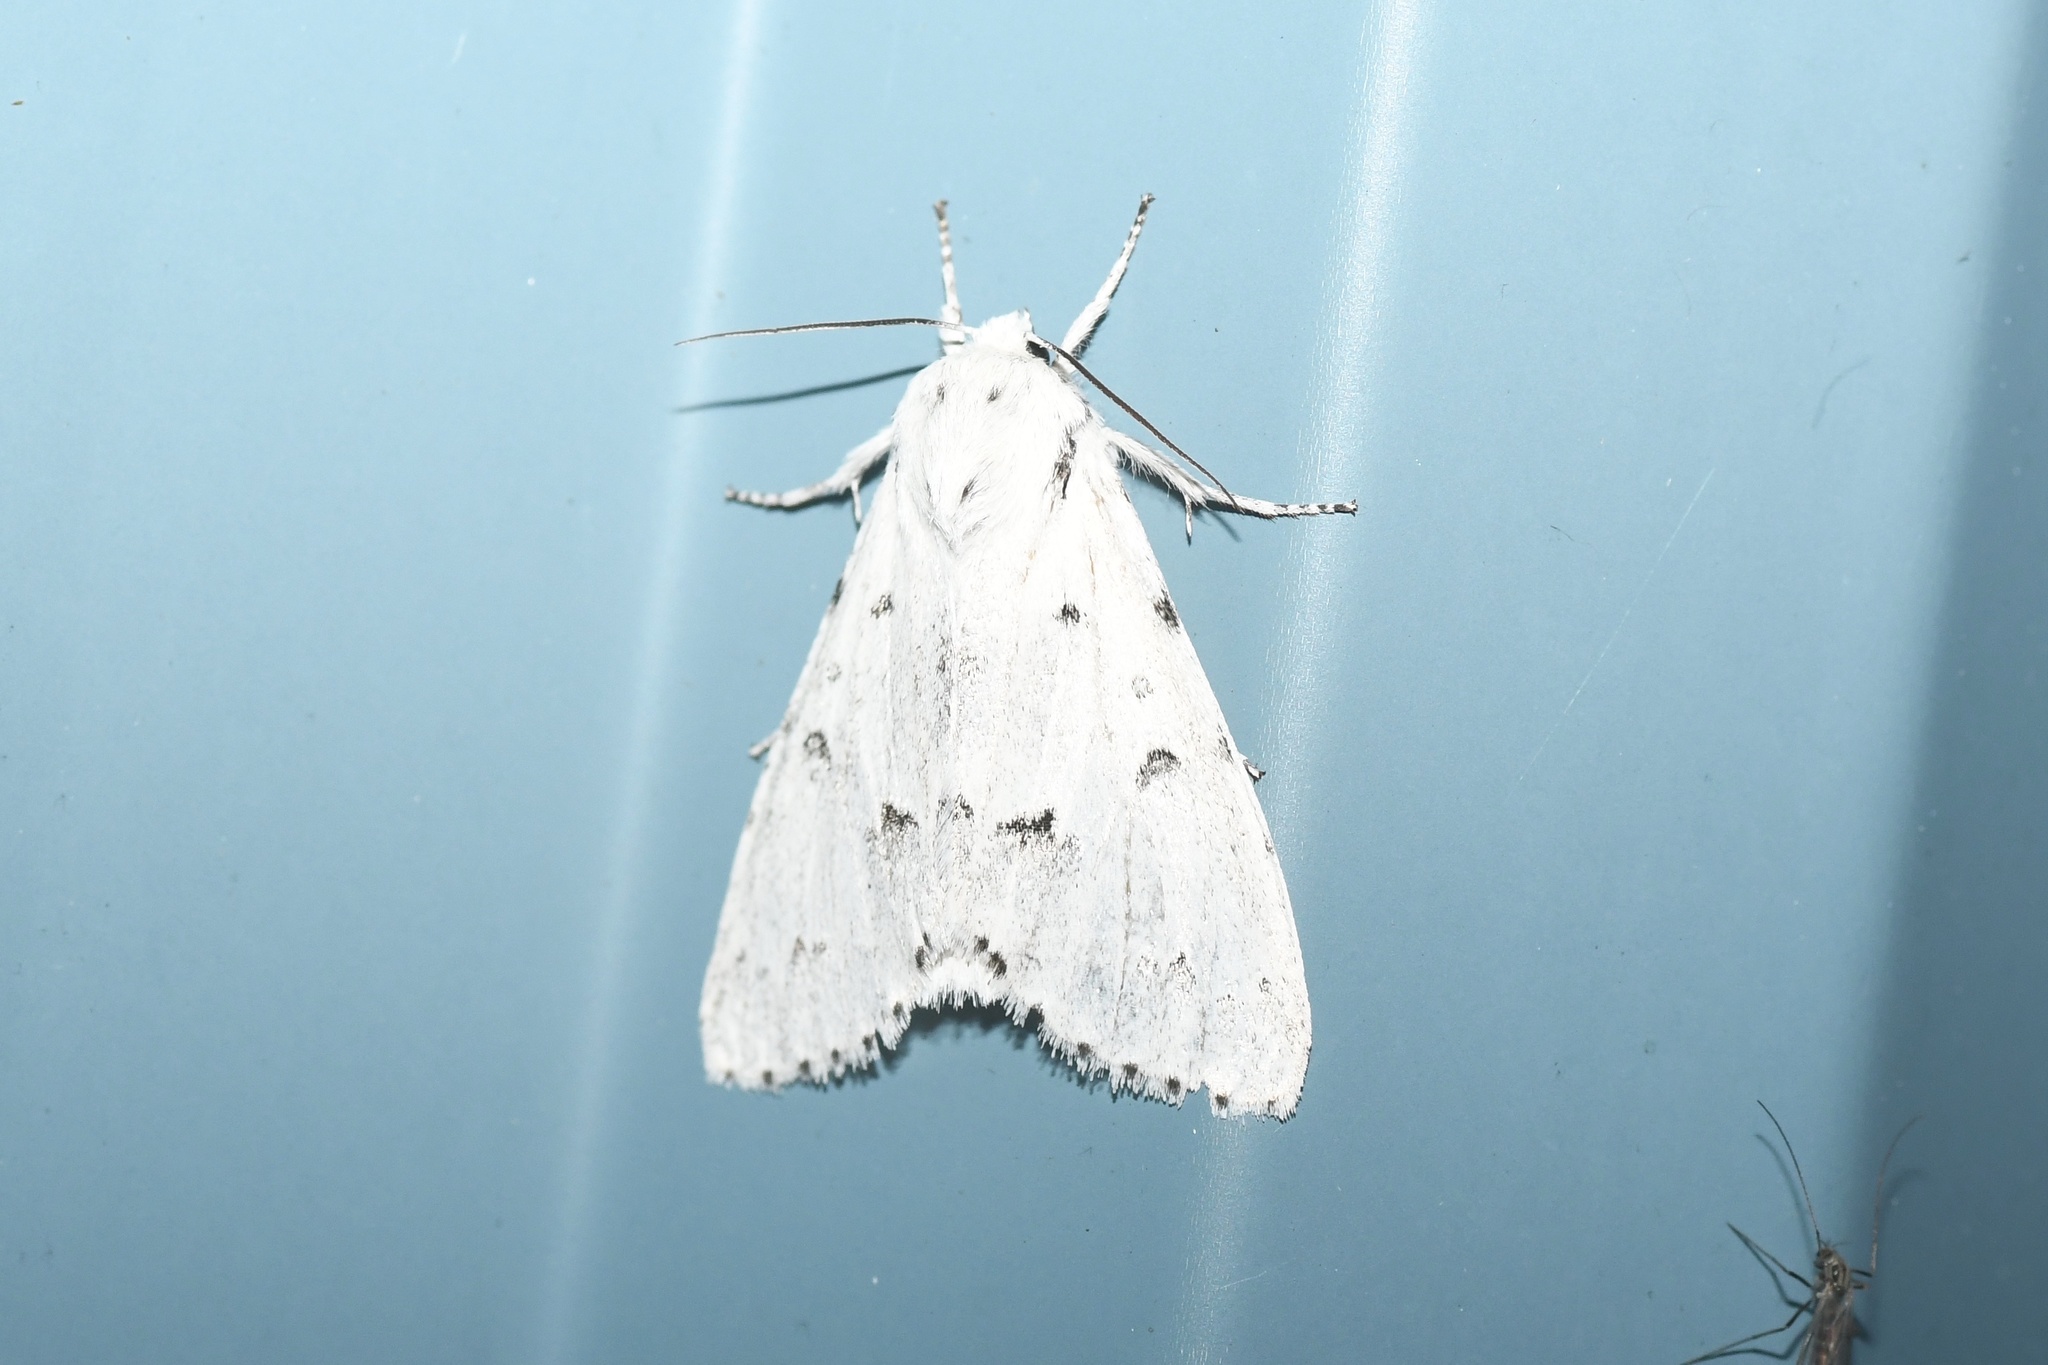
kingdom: Animalia
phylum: Arthropoda
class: Insecta
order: Lepidoptera
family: Noctuidae
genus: Acronicta
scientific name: Acronicta vulpina
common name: Miller dagger
